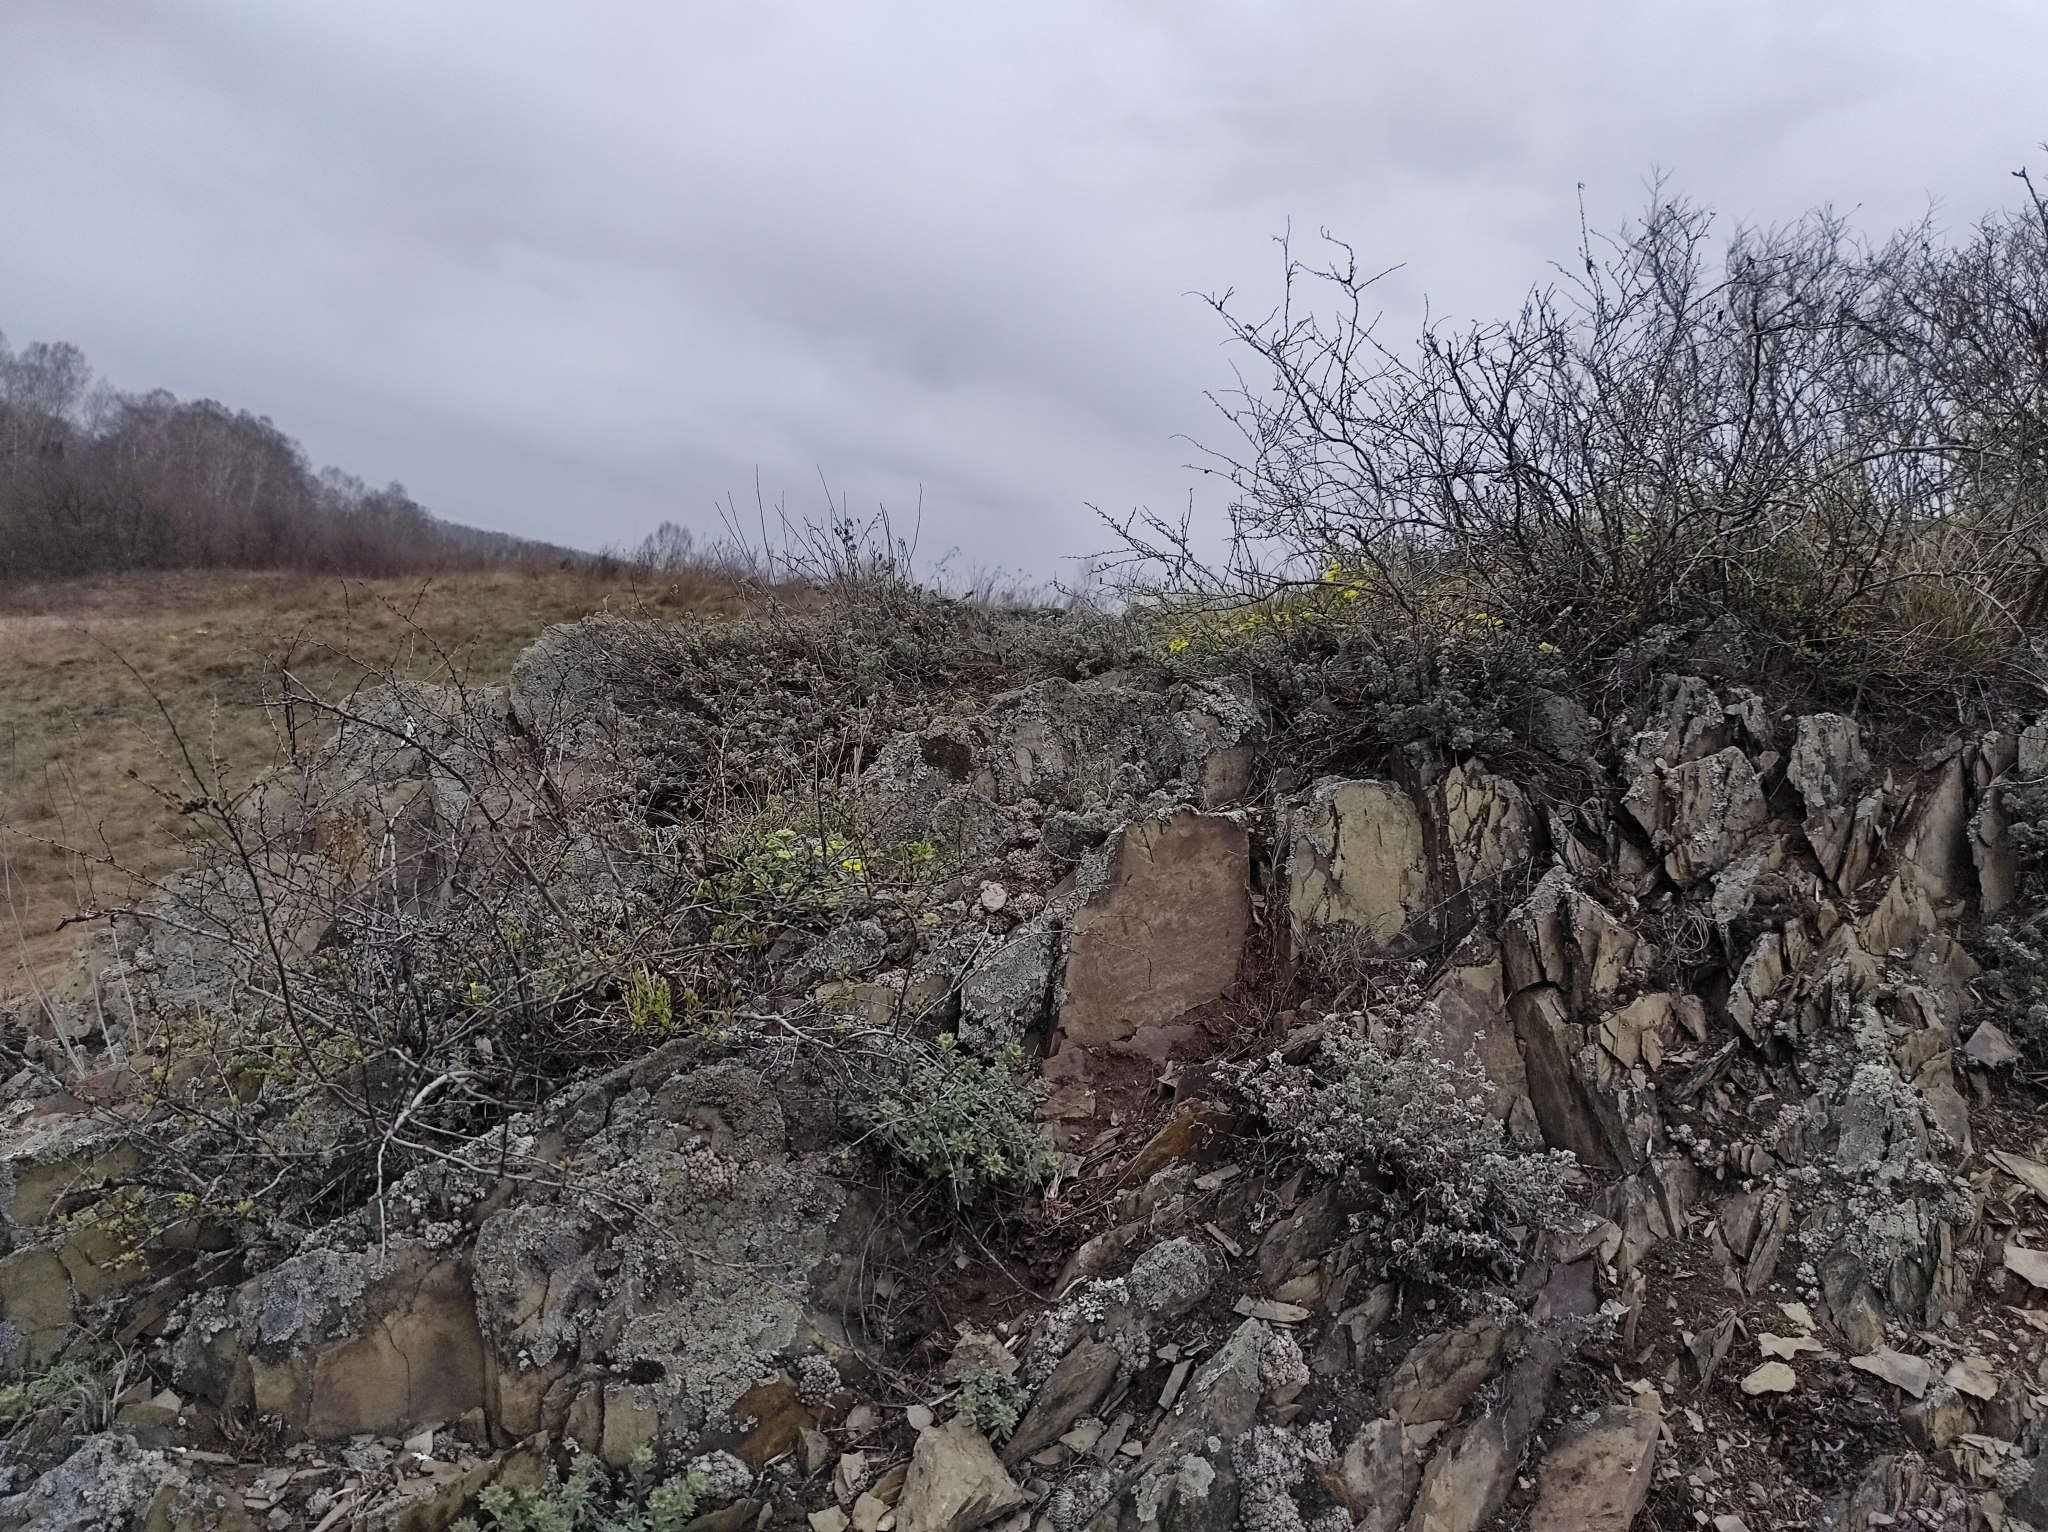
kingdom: Plantae
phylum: Tracheophyta
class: Magnoliopsida
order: Brassicales
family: Brassicaceae
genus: Alyssum
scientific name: Alyssum lenense
